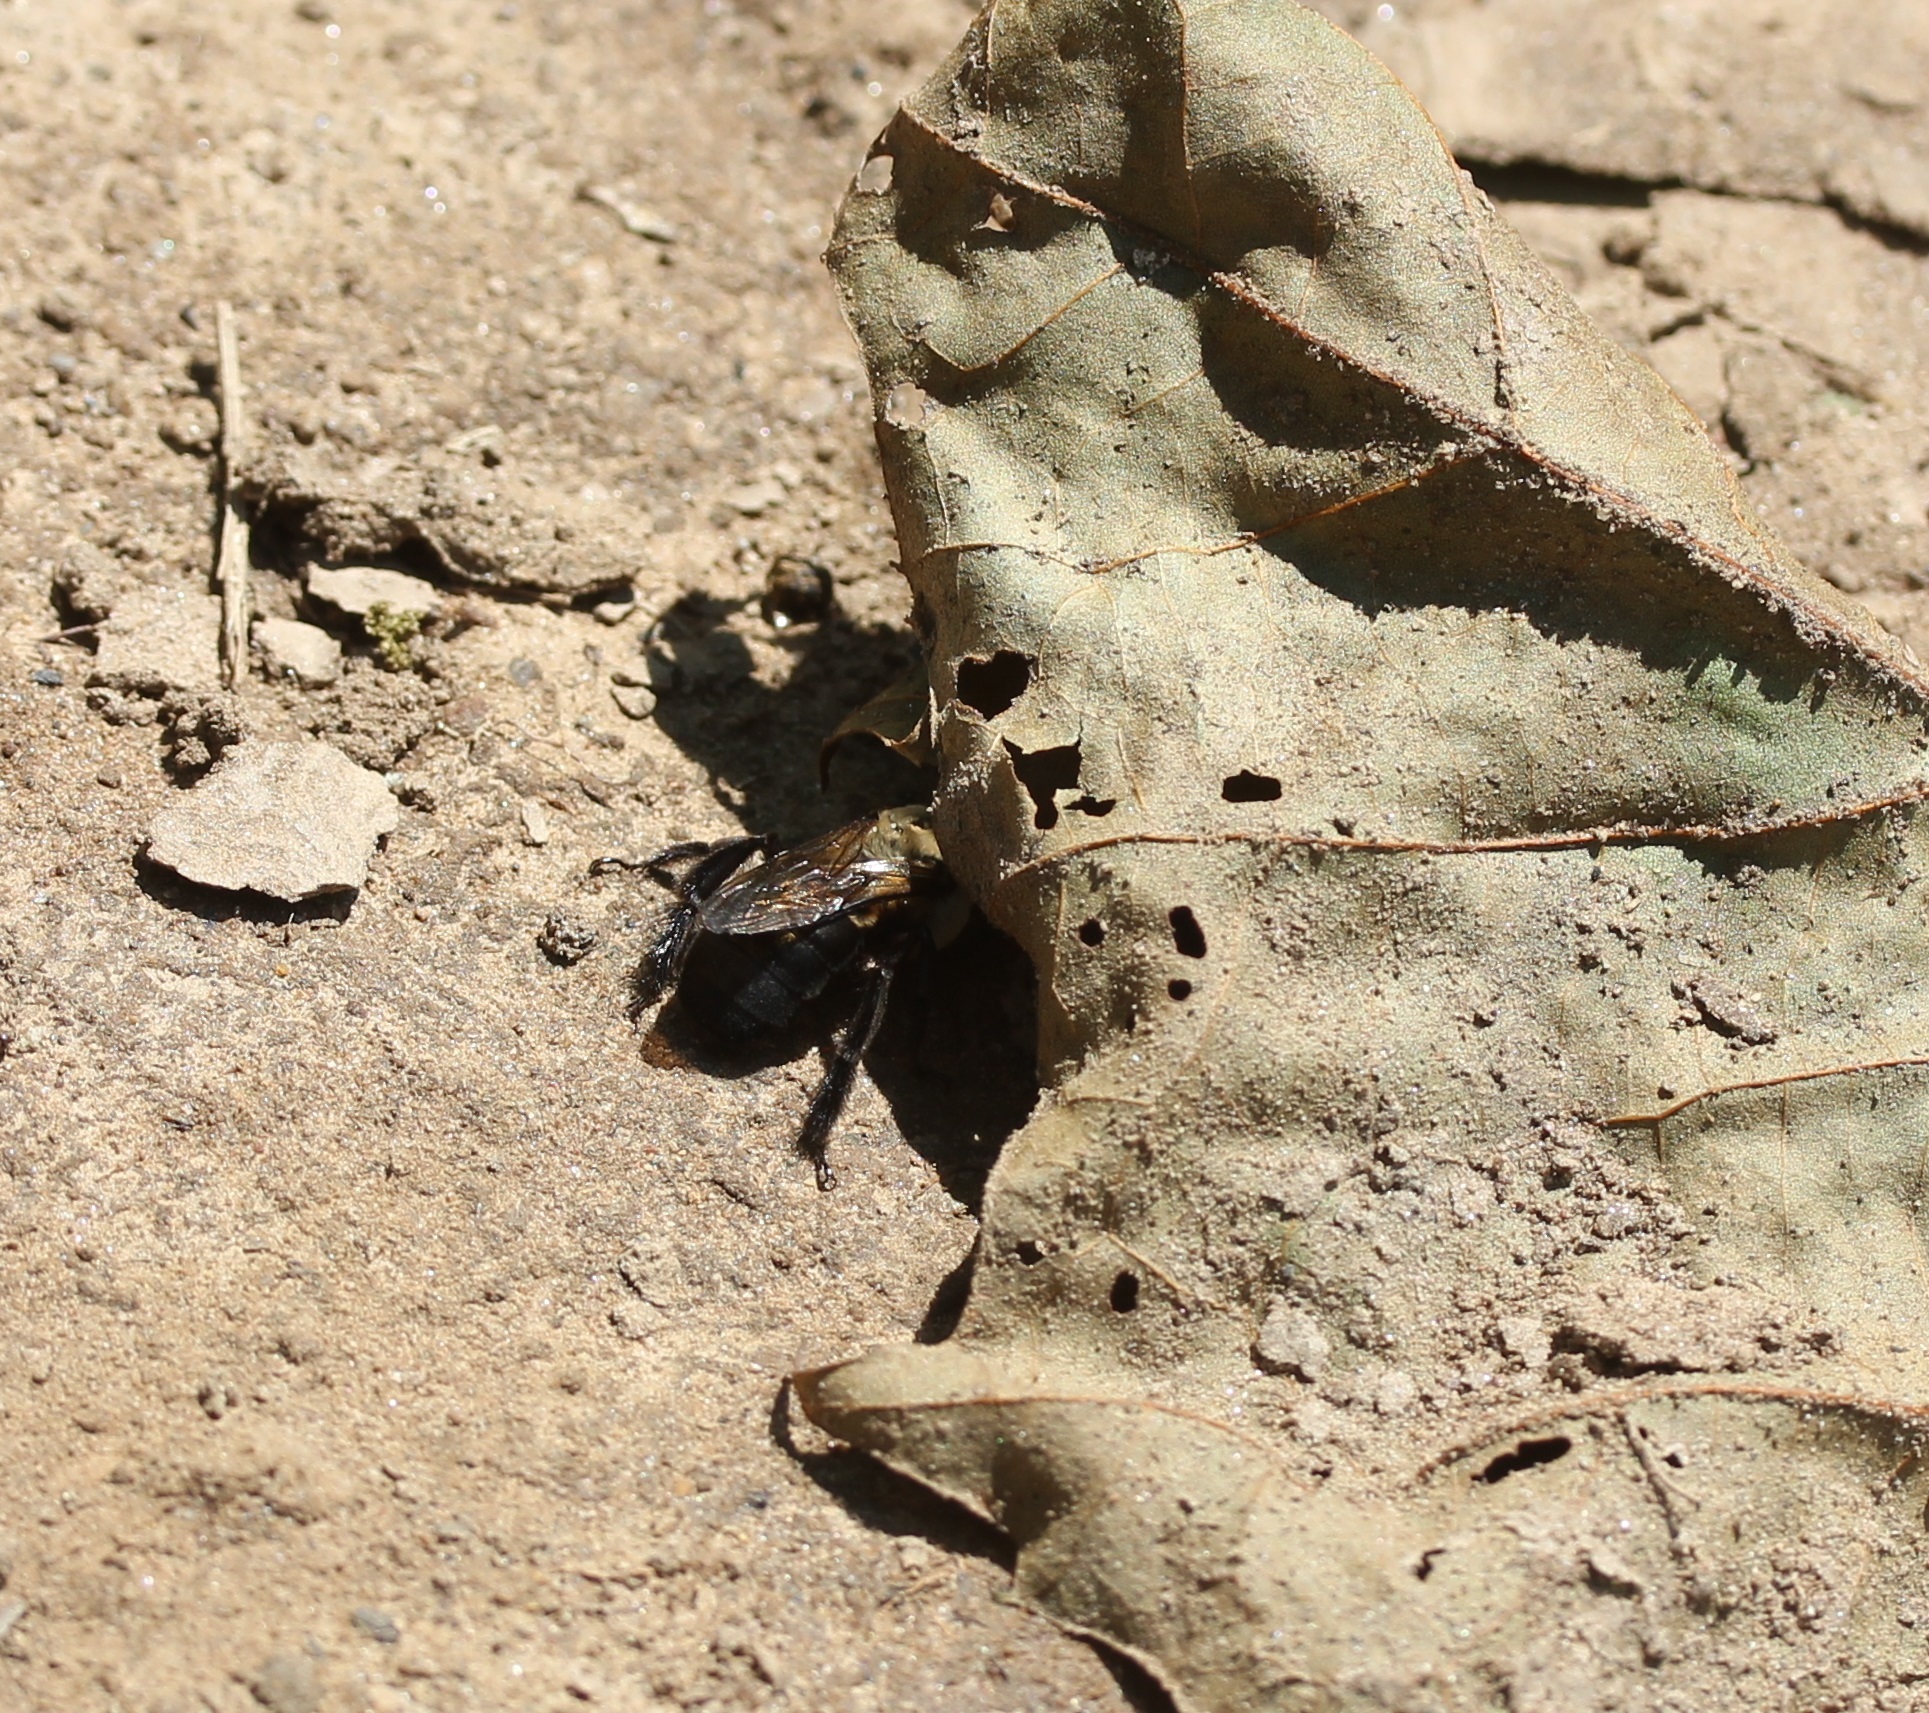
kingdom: Animalia
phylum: Arthropoda
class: Insecta
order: Hymenoptera
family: Apidae
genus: Ptilothrix
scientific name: Ptilothrix bombiformis
